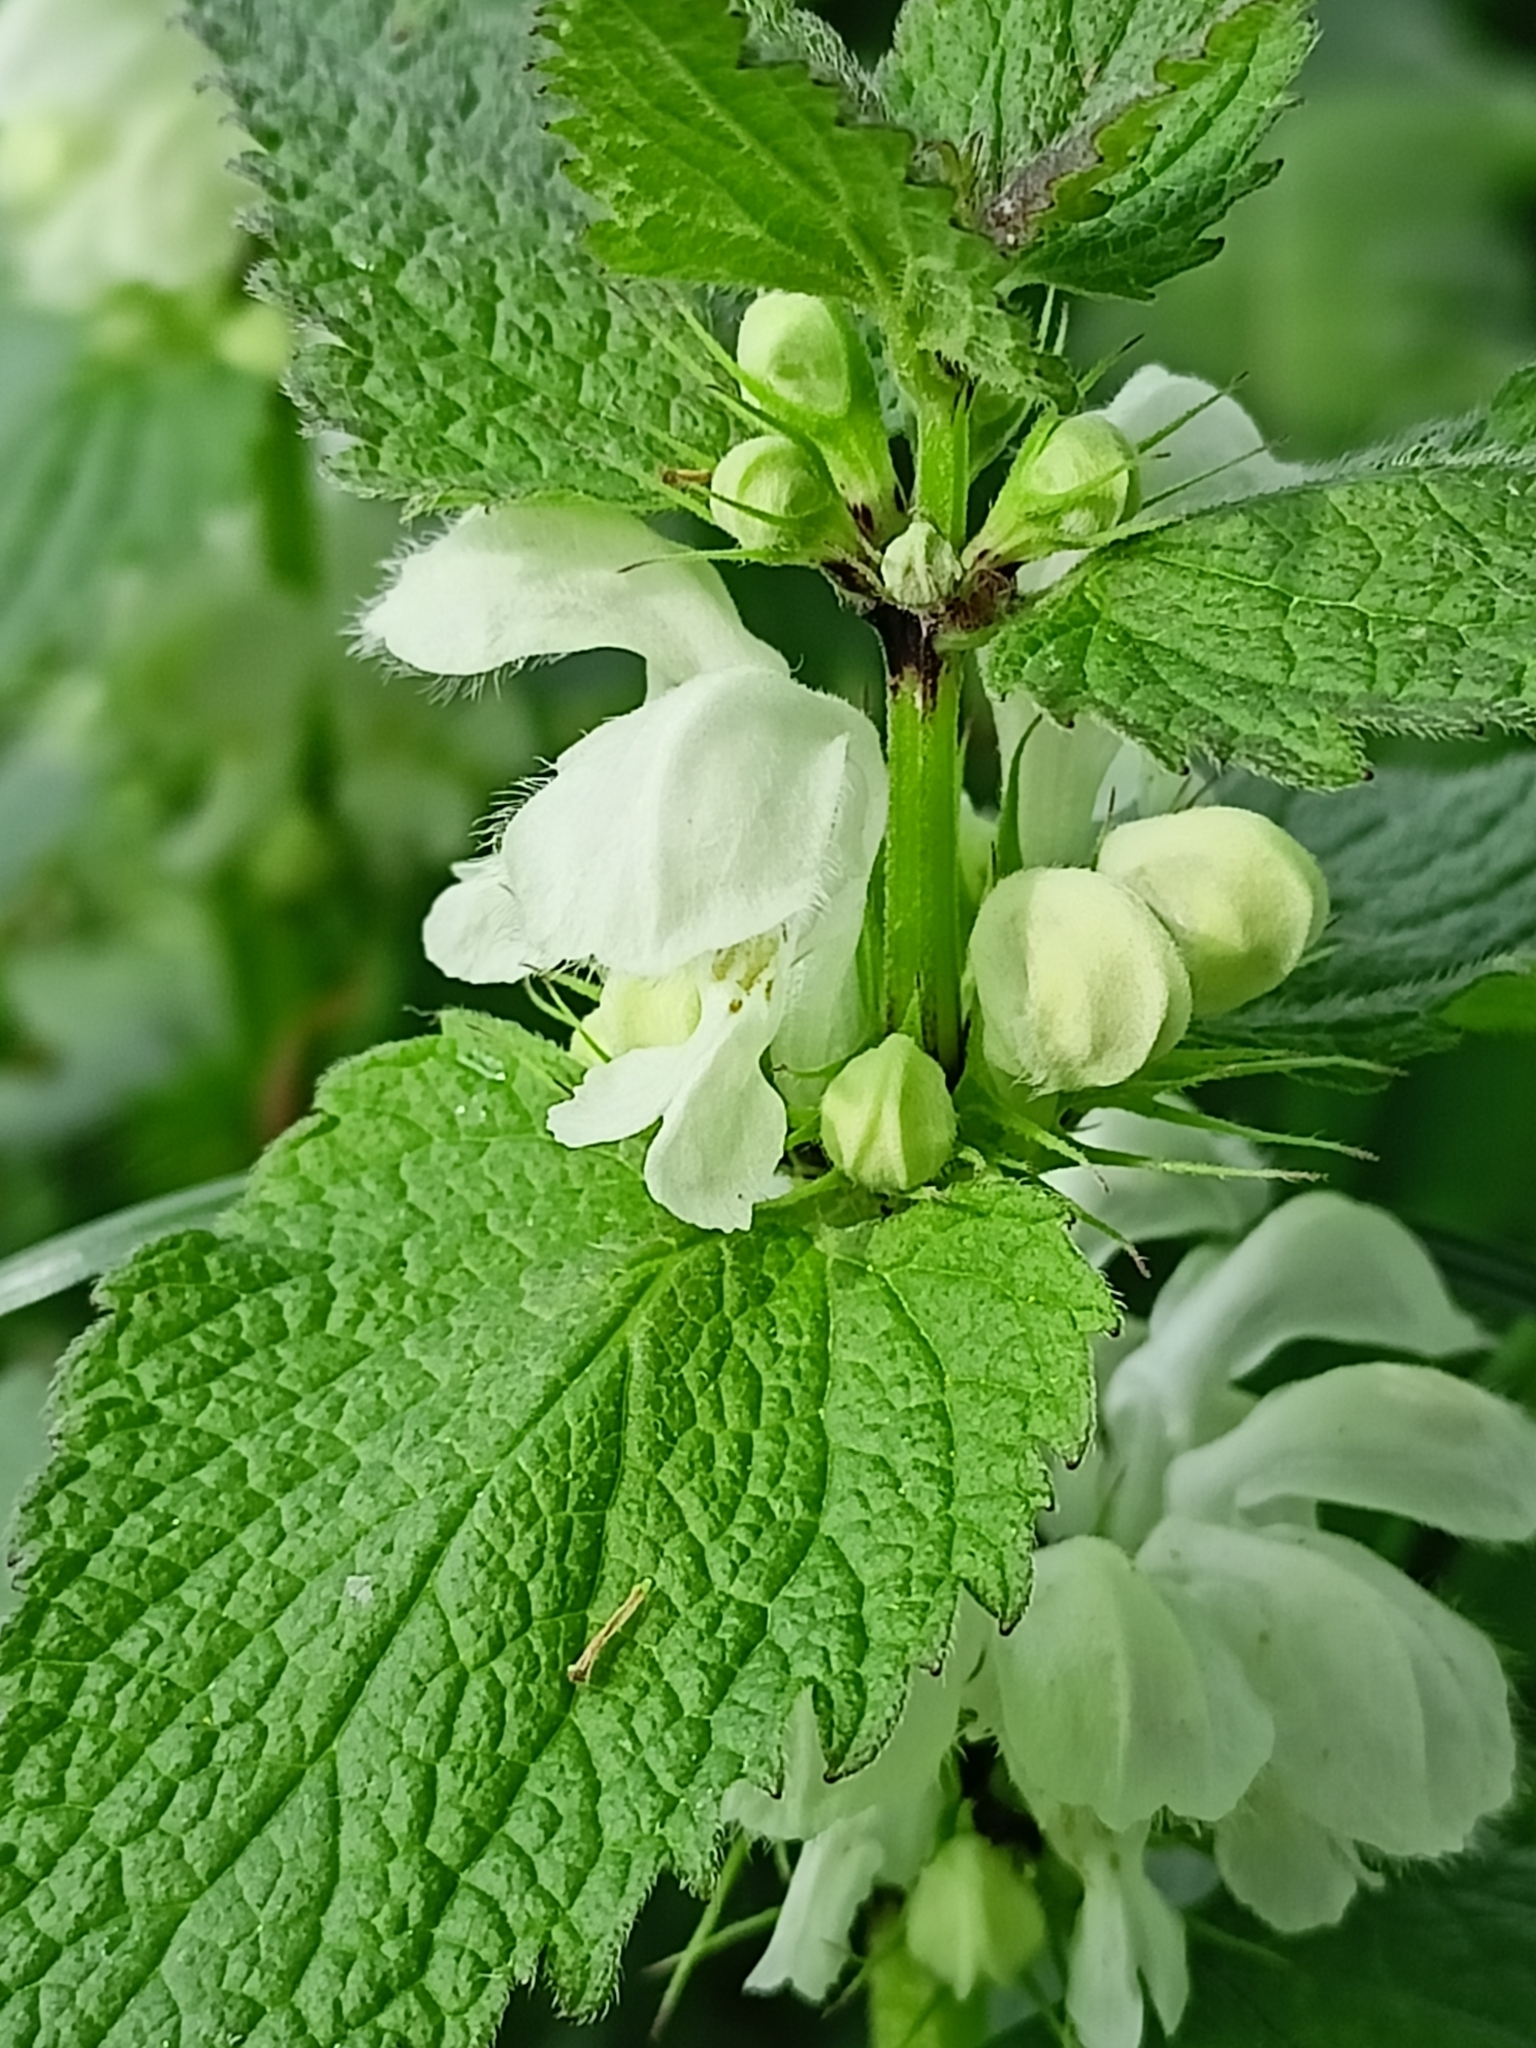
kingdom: Plantae
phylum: Tracheophyta
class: Magnoliopsida
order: Lamiales
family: Lamiaceae
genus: Lamium
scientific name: Lamium album
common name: White dead-nettle
